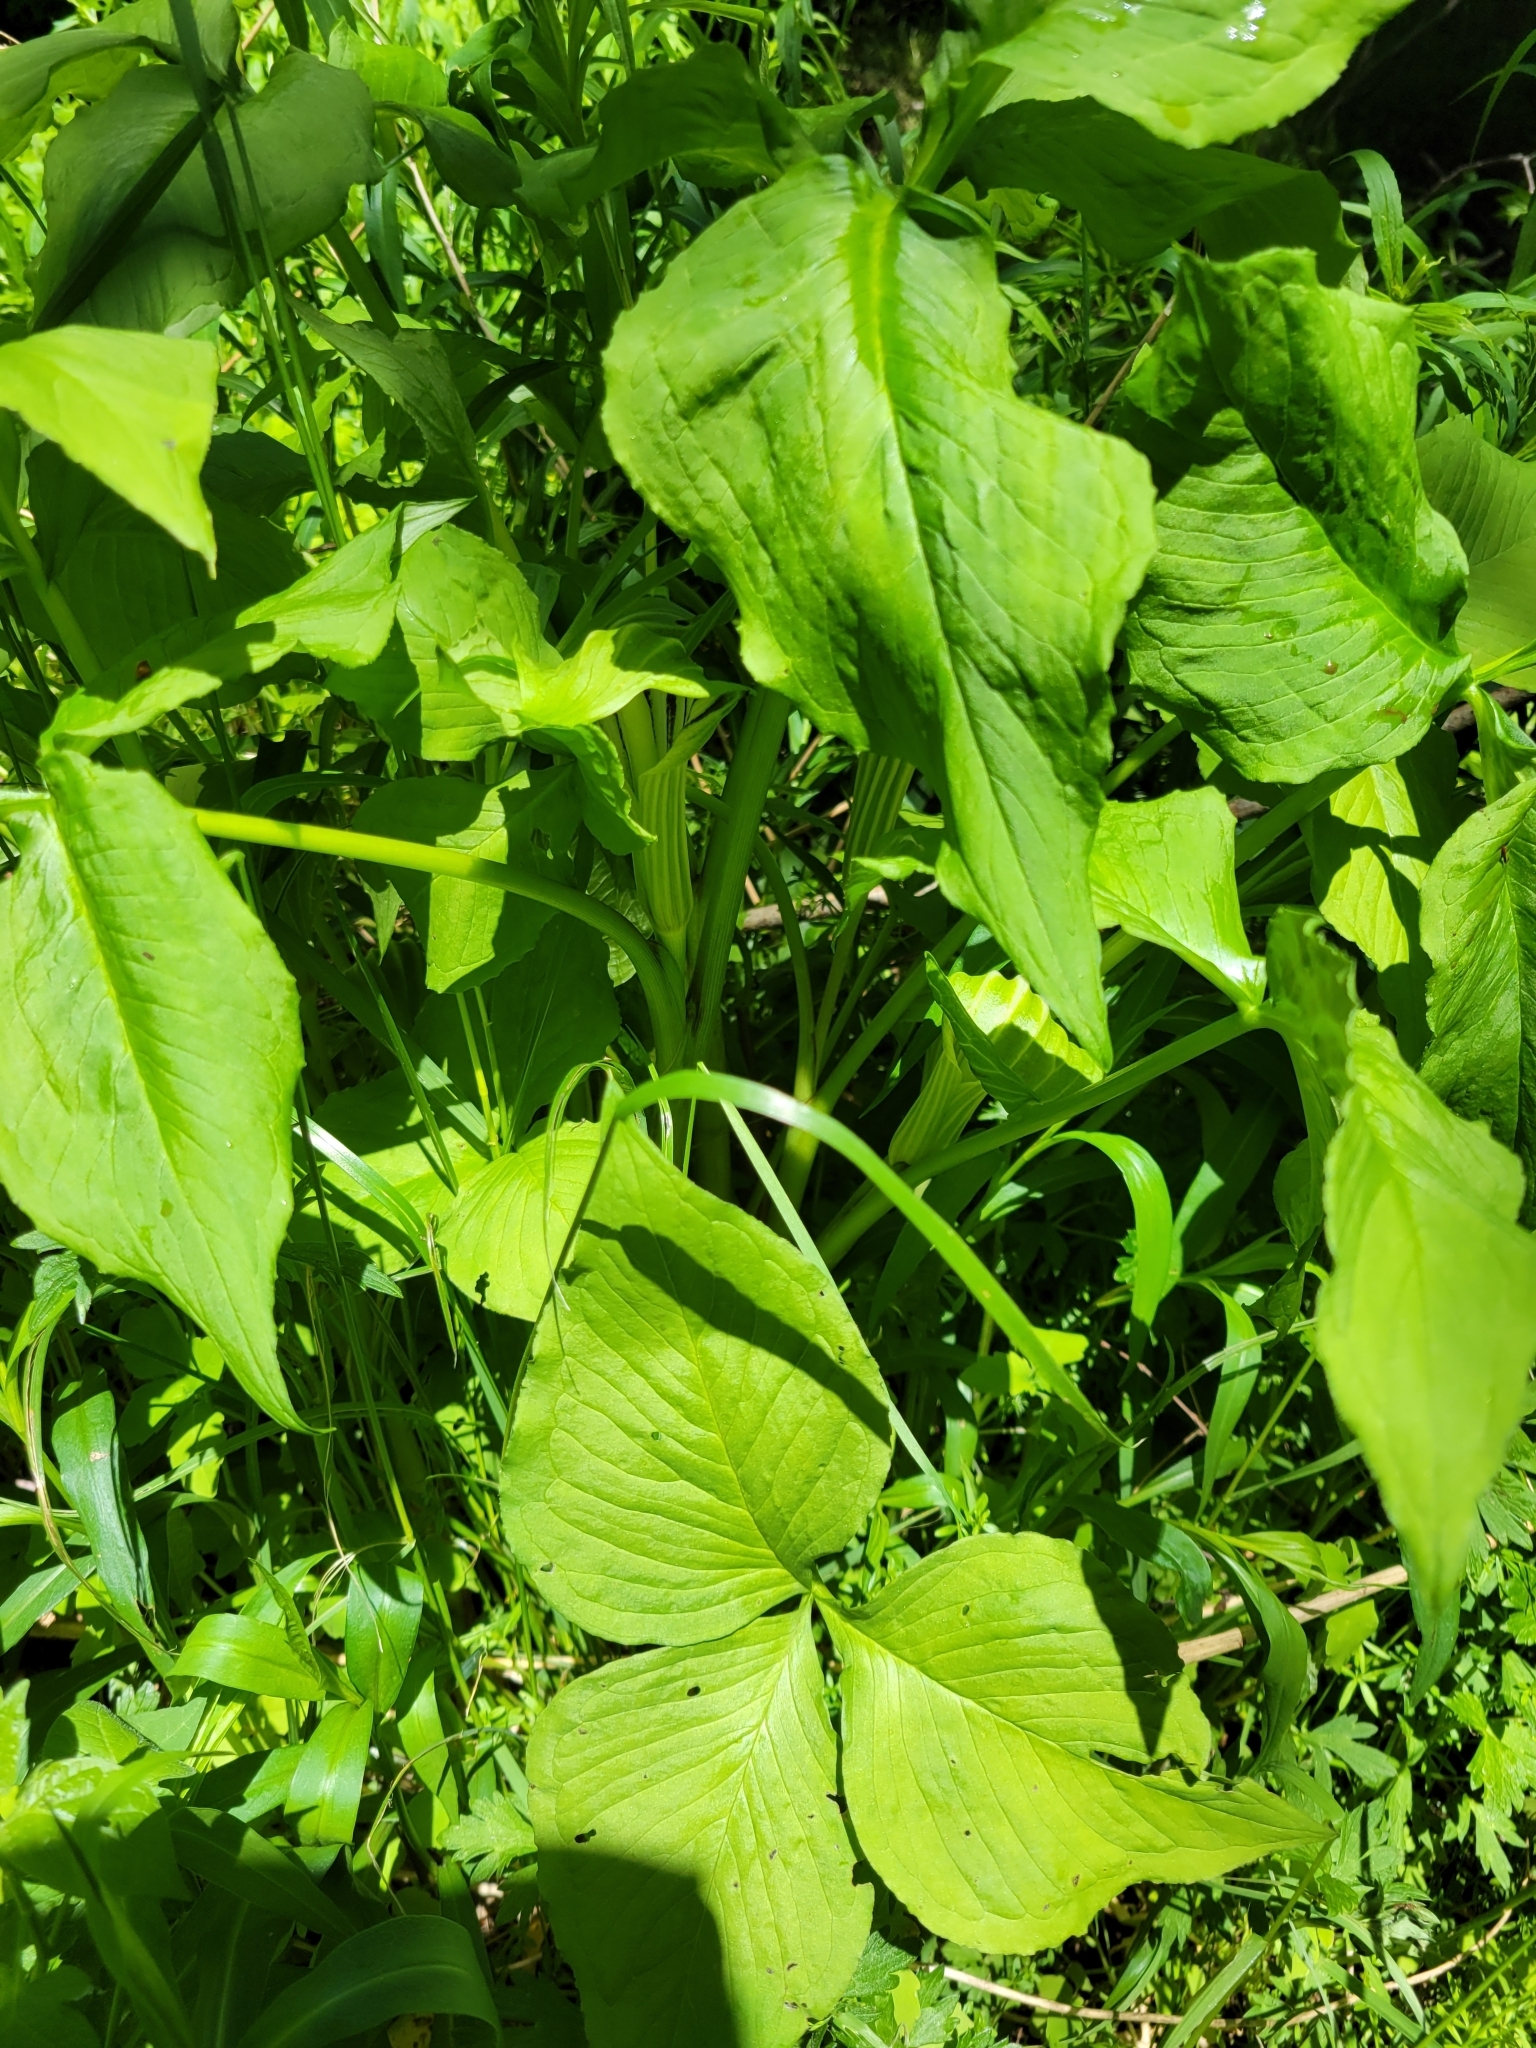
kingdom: Plantae
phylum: Tracheophyta
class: Liliopsida
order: Alismatales
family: Araceae
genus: Arisaema
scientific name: Arisaema stewardsonii
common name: Swamp jack-in-the-pulpit
